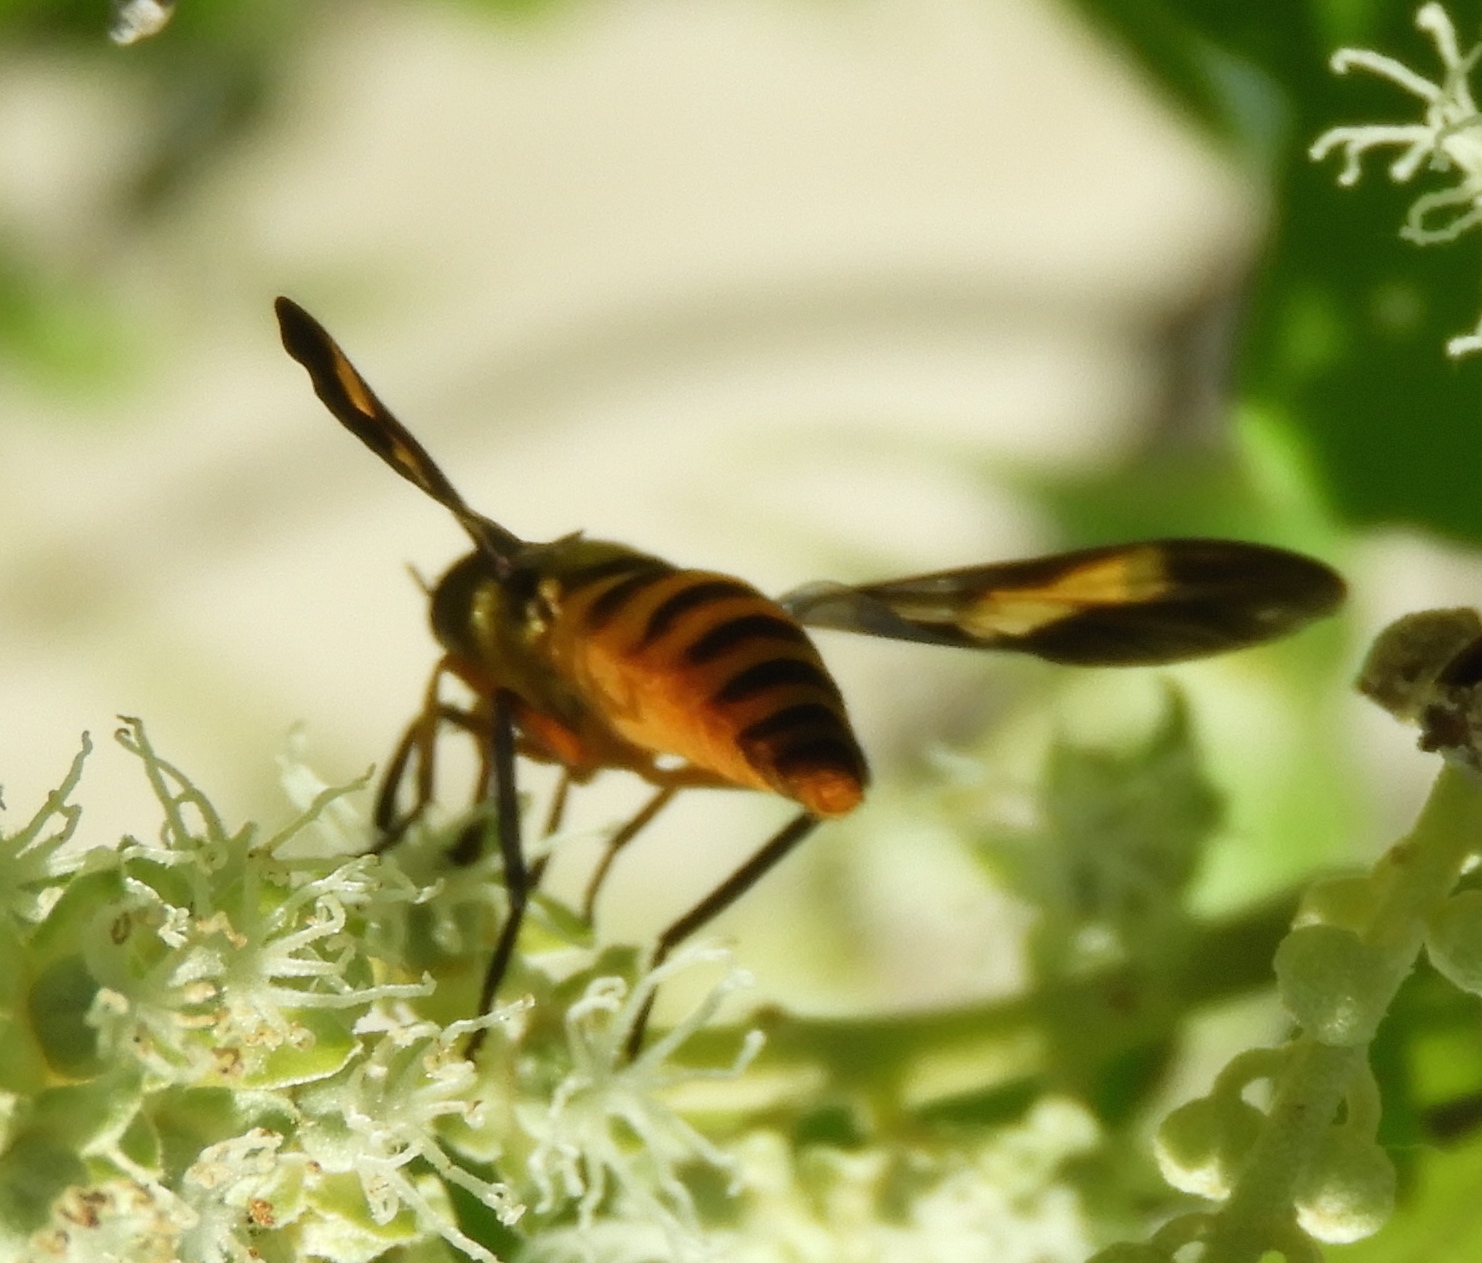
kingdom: Animalia
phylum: Arthropoda
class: Insecta
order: Diptera
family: Tabanidae
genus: Dichelacera
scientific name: Dichelacera
